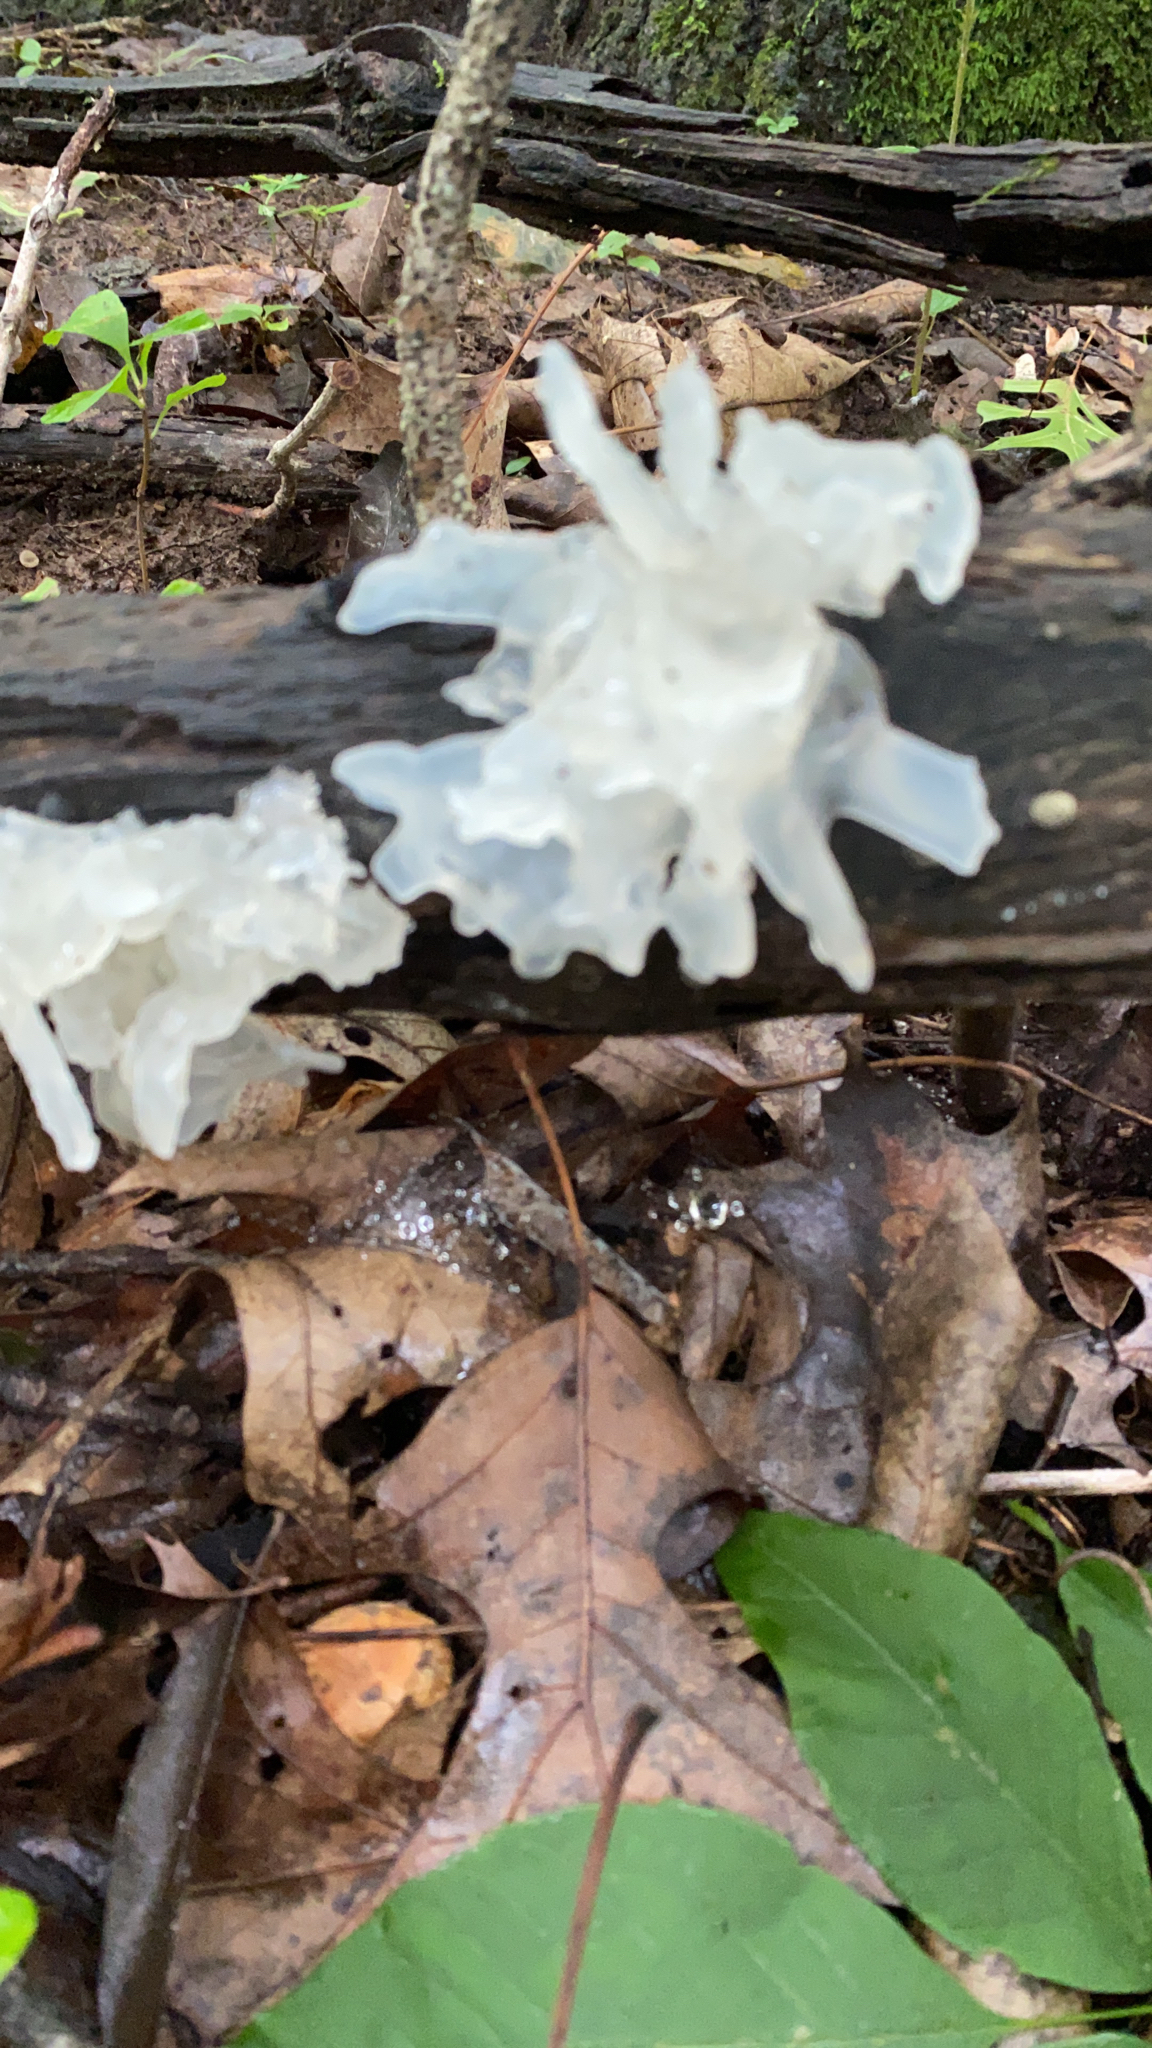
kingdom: Fungi
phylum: Basidiomycota
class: Tremellomycetes
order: Tremellales
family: Tremellaceae
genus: Tremella
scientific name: Tremella fuciformis
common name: Snow fungus
